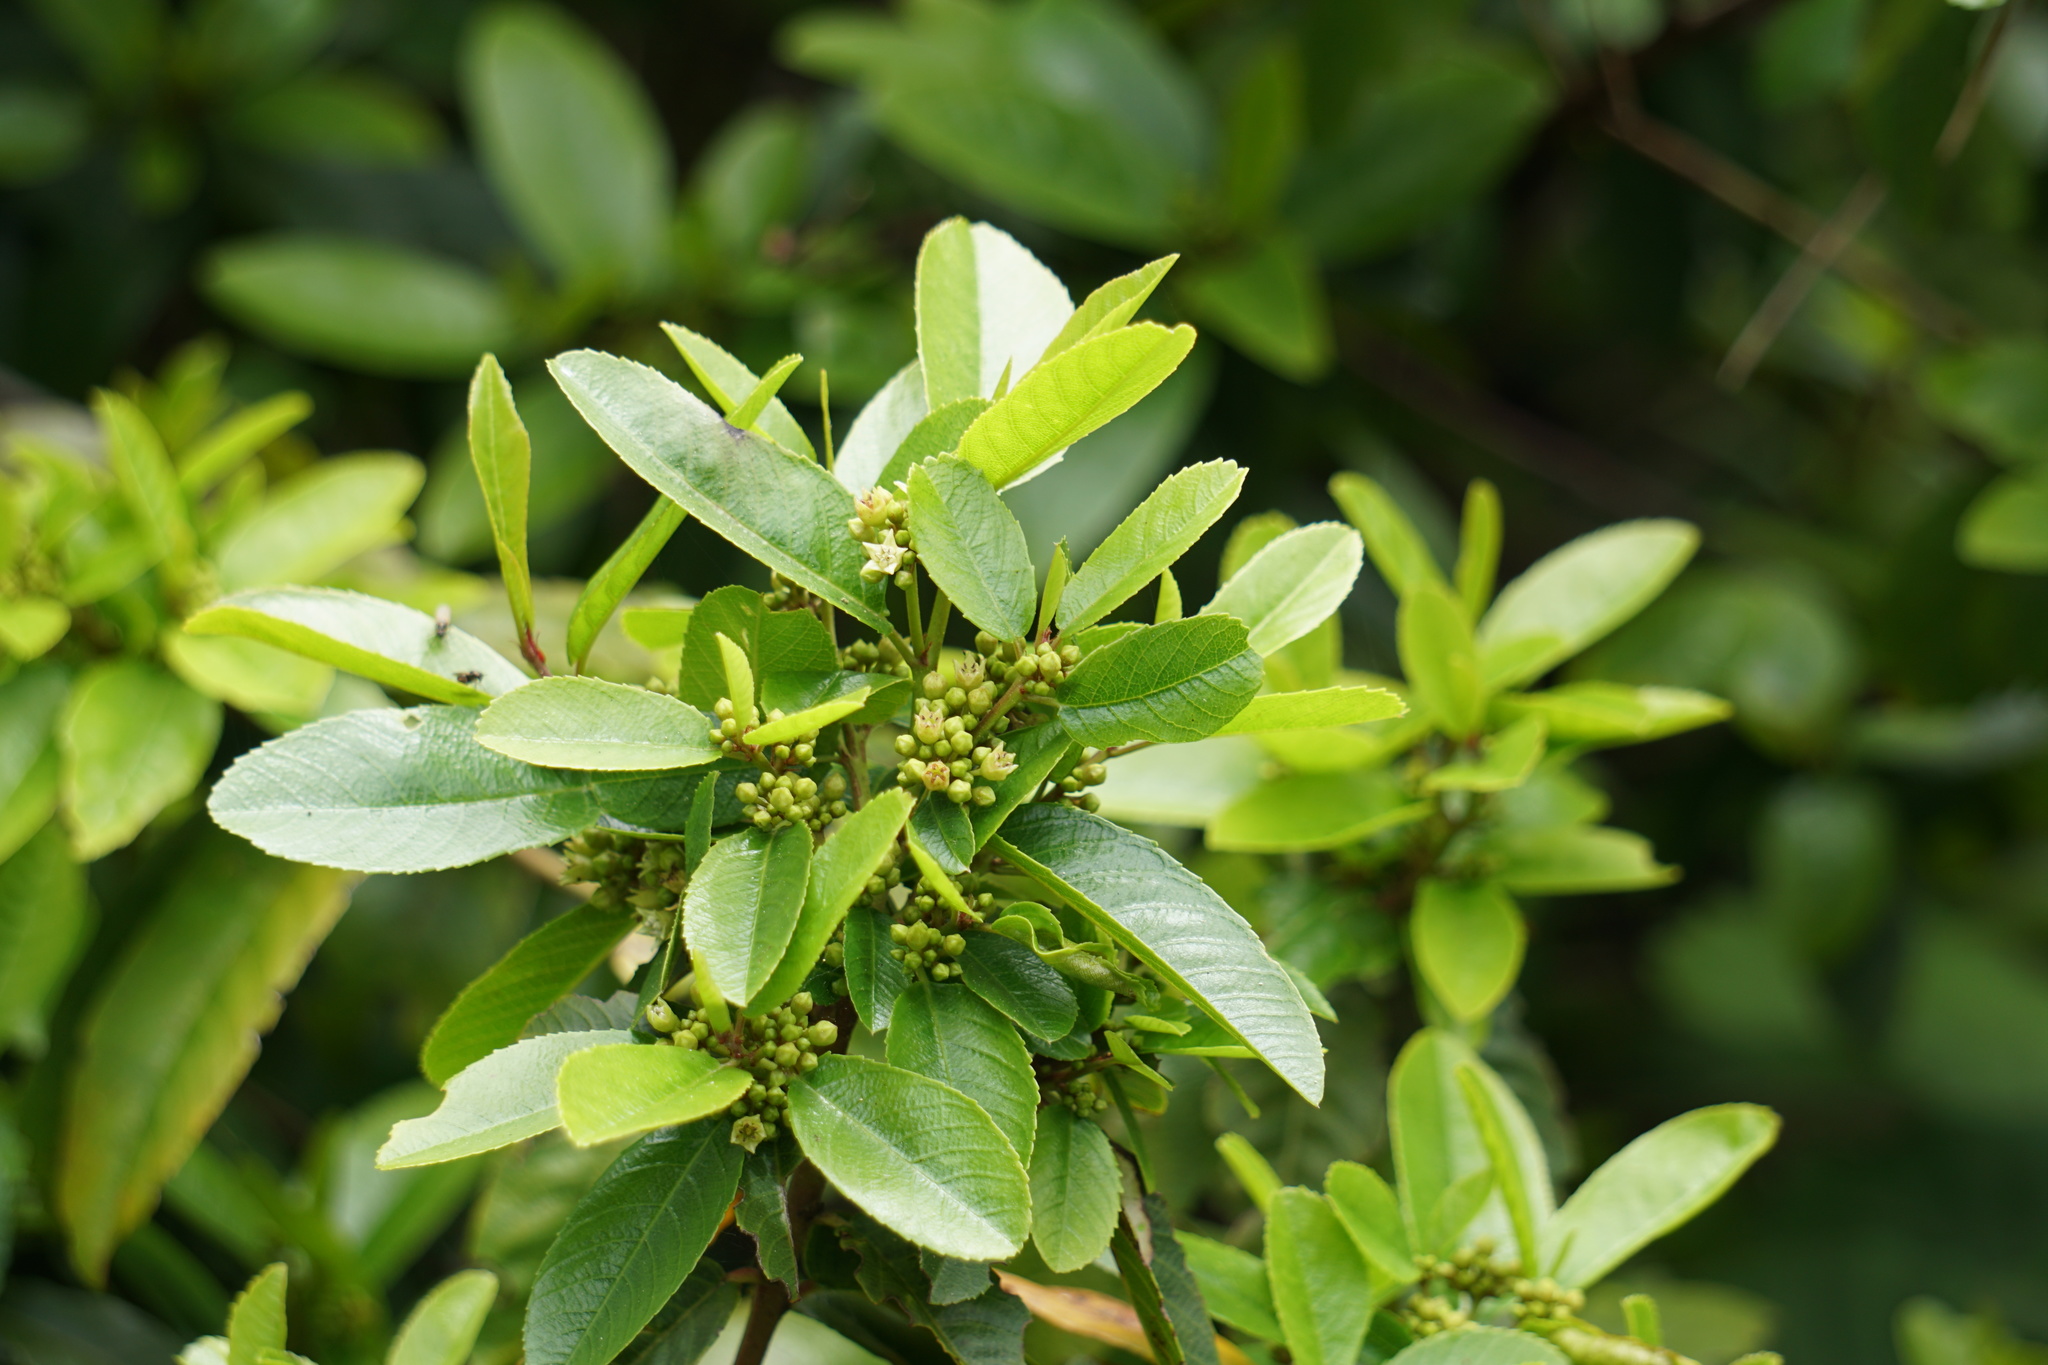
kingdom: Plantae
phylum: Tracheophyta
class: Magnoliopsida
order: Rosales
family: Rhamnaceae
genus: Frangula
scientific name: Frangula californica
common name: California buckthorn
